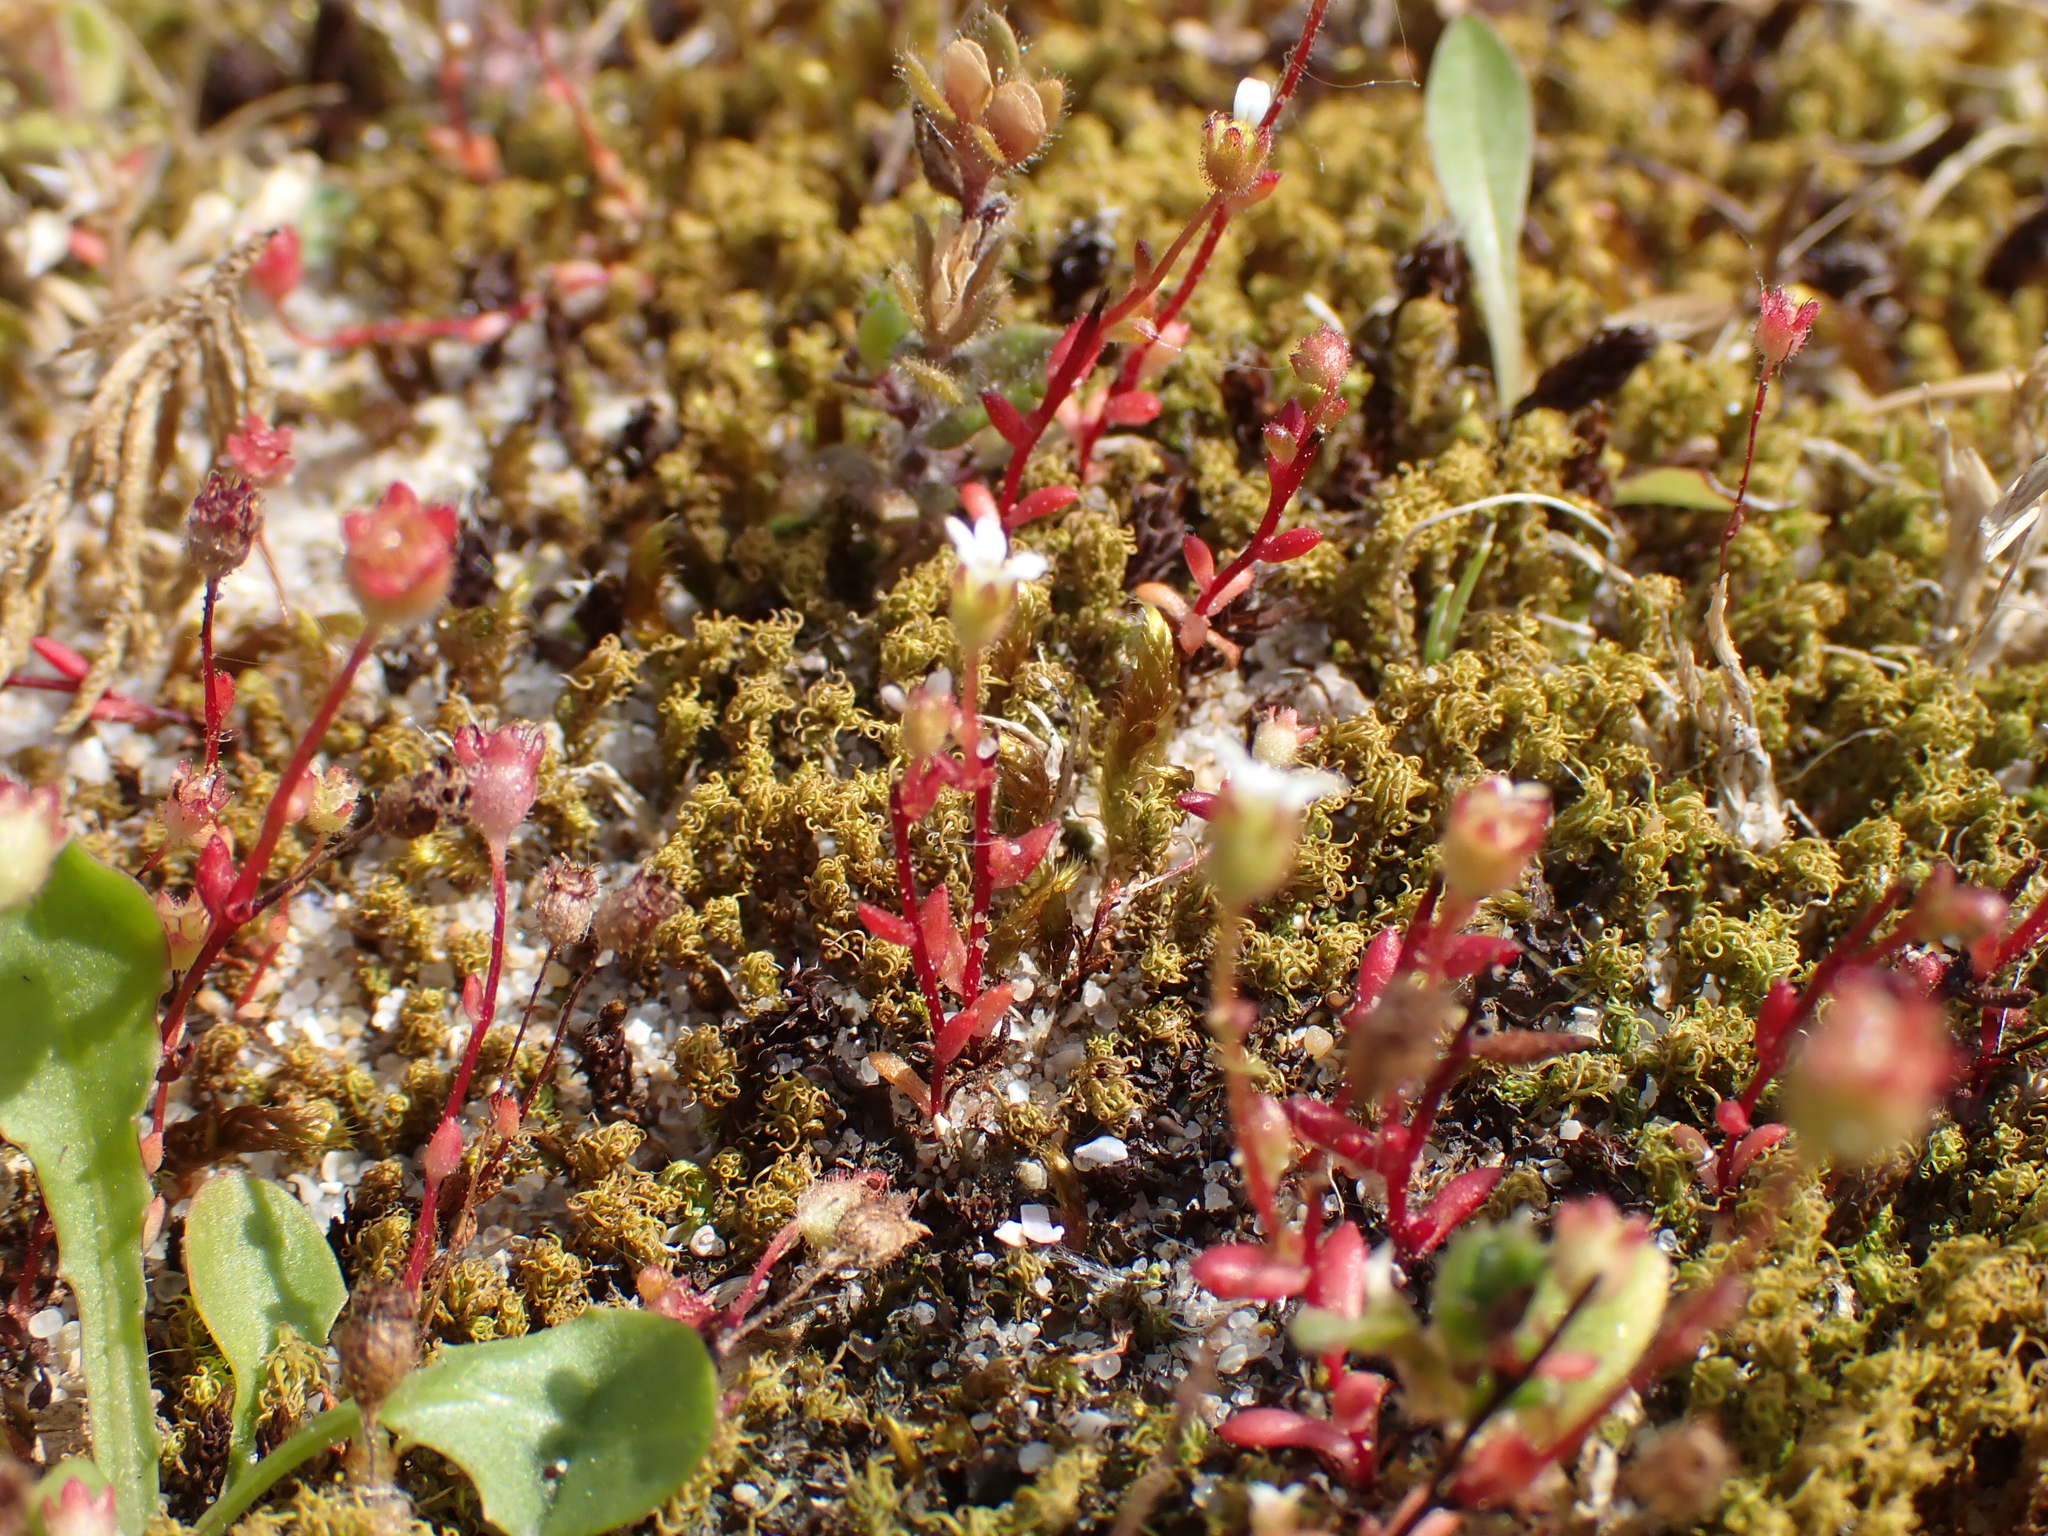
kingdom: Plantae
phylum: Tracheophyta
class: Magnoliopsida
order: Saxifragales
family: Saxifragaceae
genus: Saxifraga
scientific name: Saxifraga tridactylites
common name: Rue-leaved saxifrage
